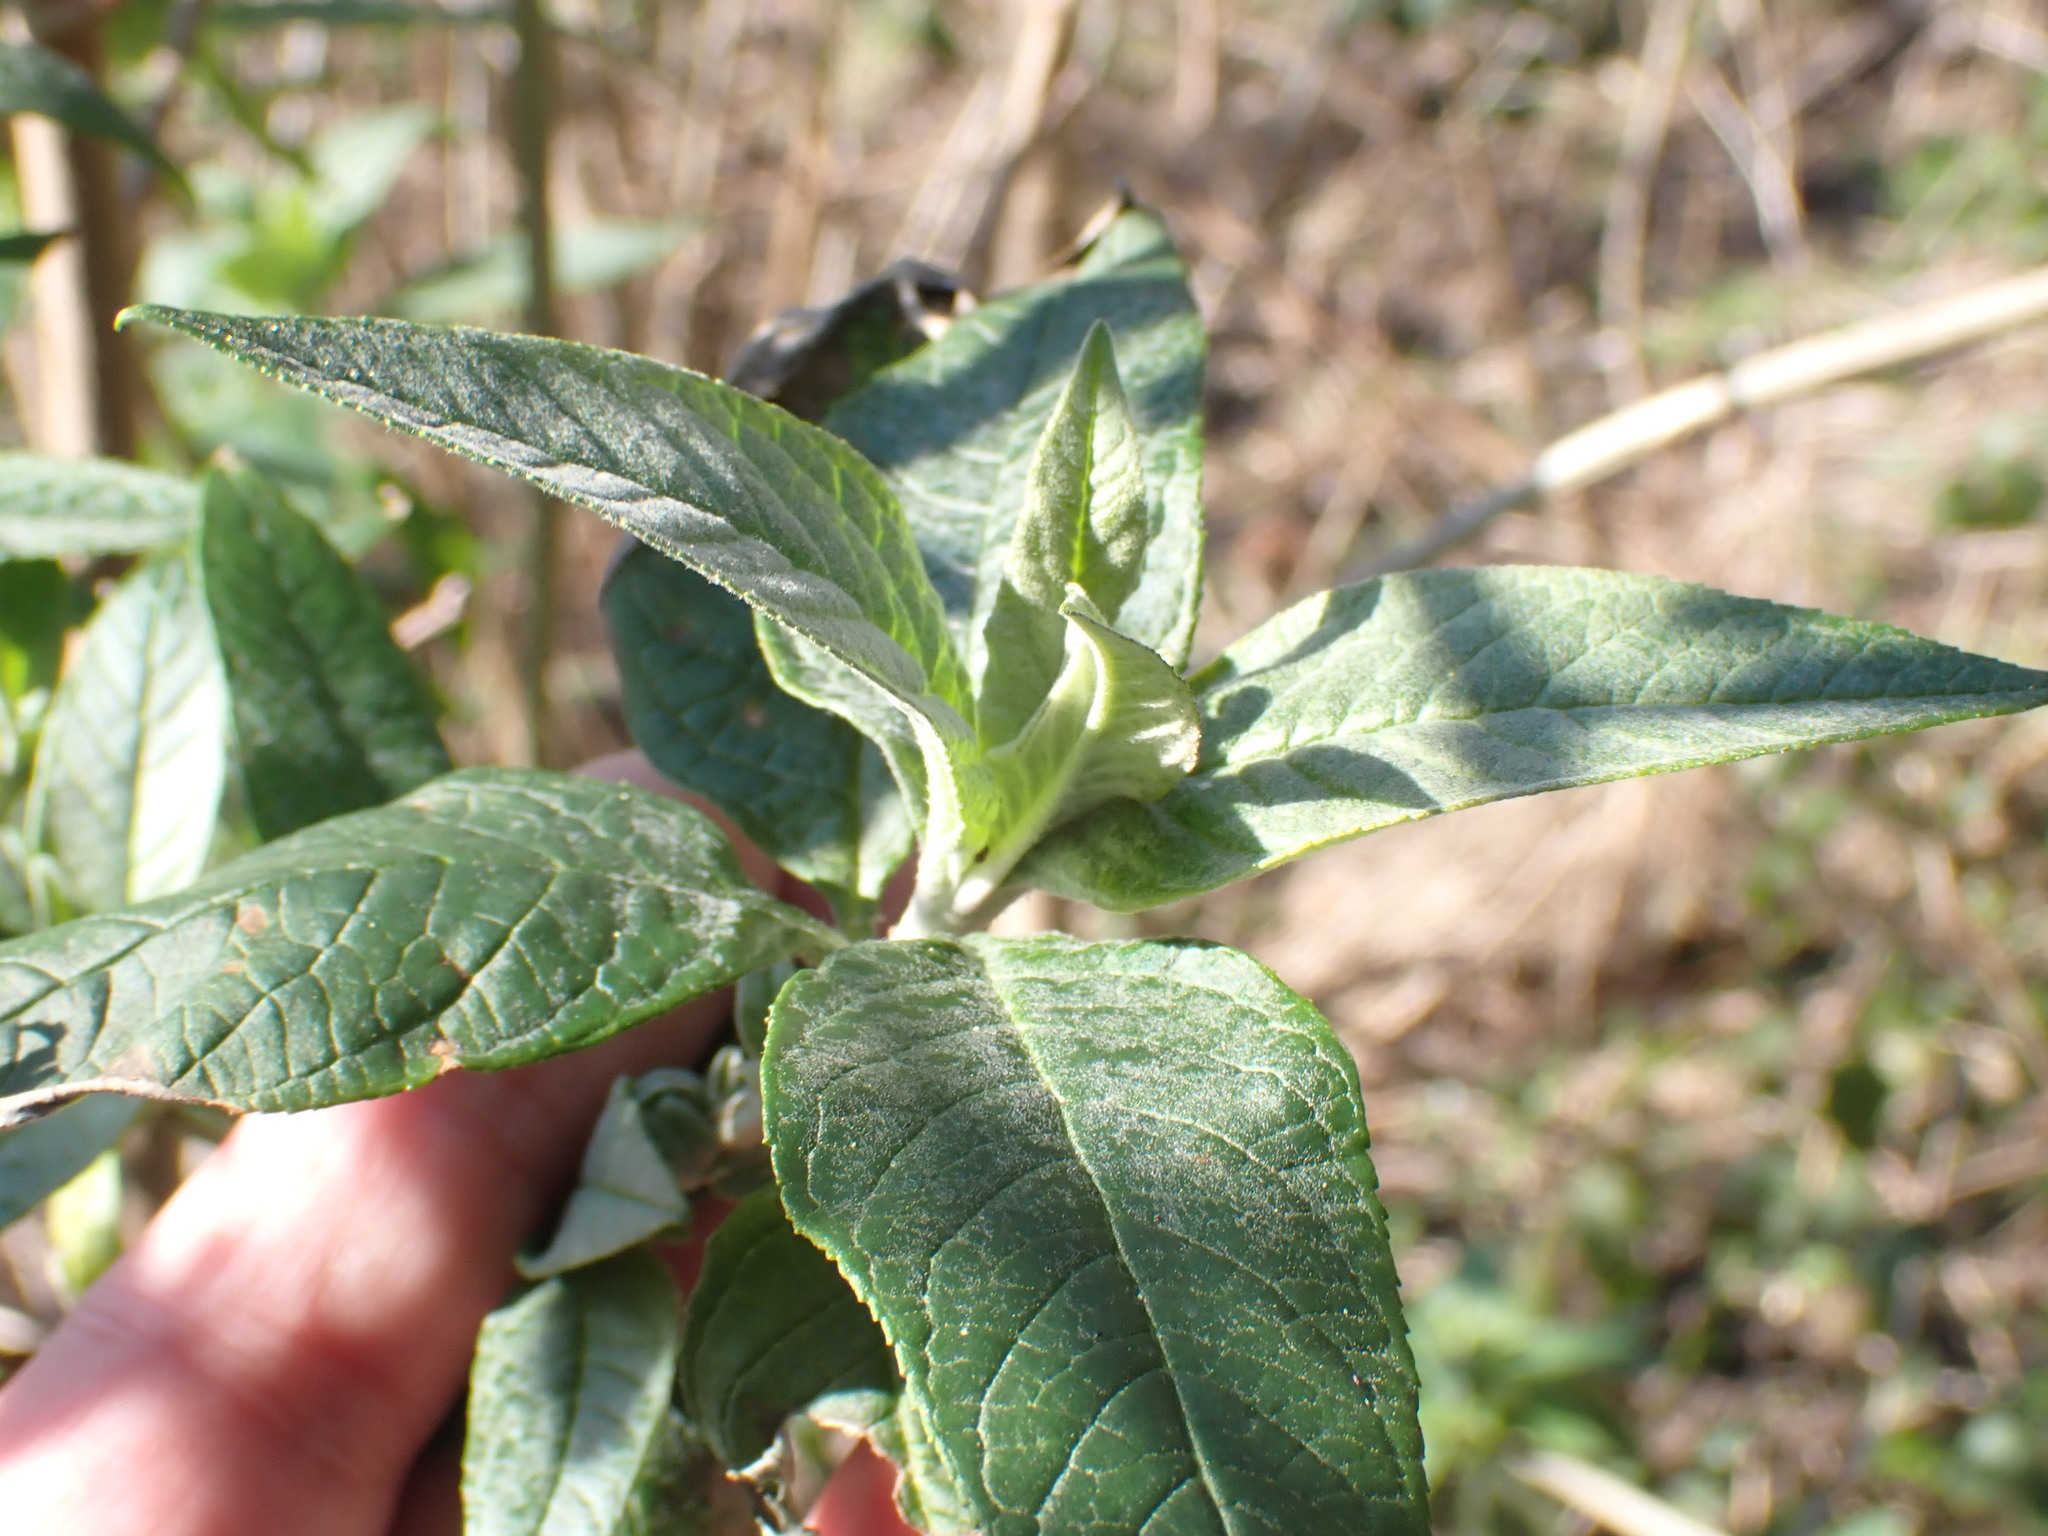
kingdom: Plantae
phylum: Tracheophyta
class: Magnoliopsida
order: Lamiales
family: Scrophulariaceae
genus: Buddleja
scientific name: Buddleja davidii
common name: Butterfly-bush
